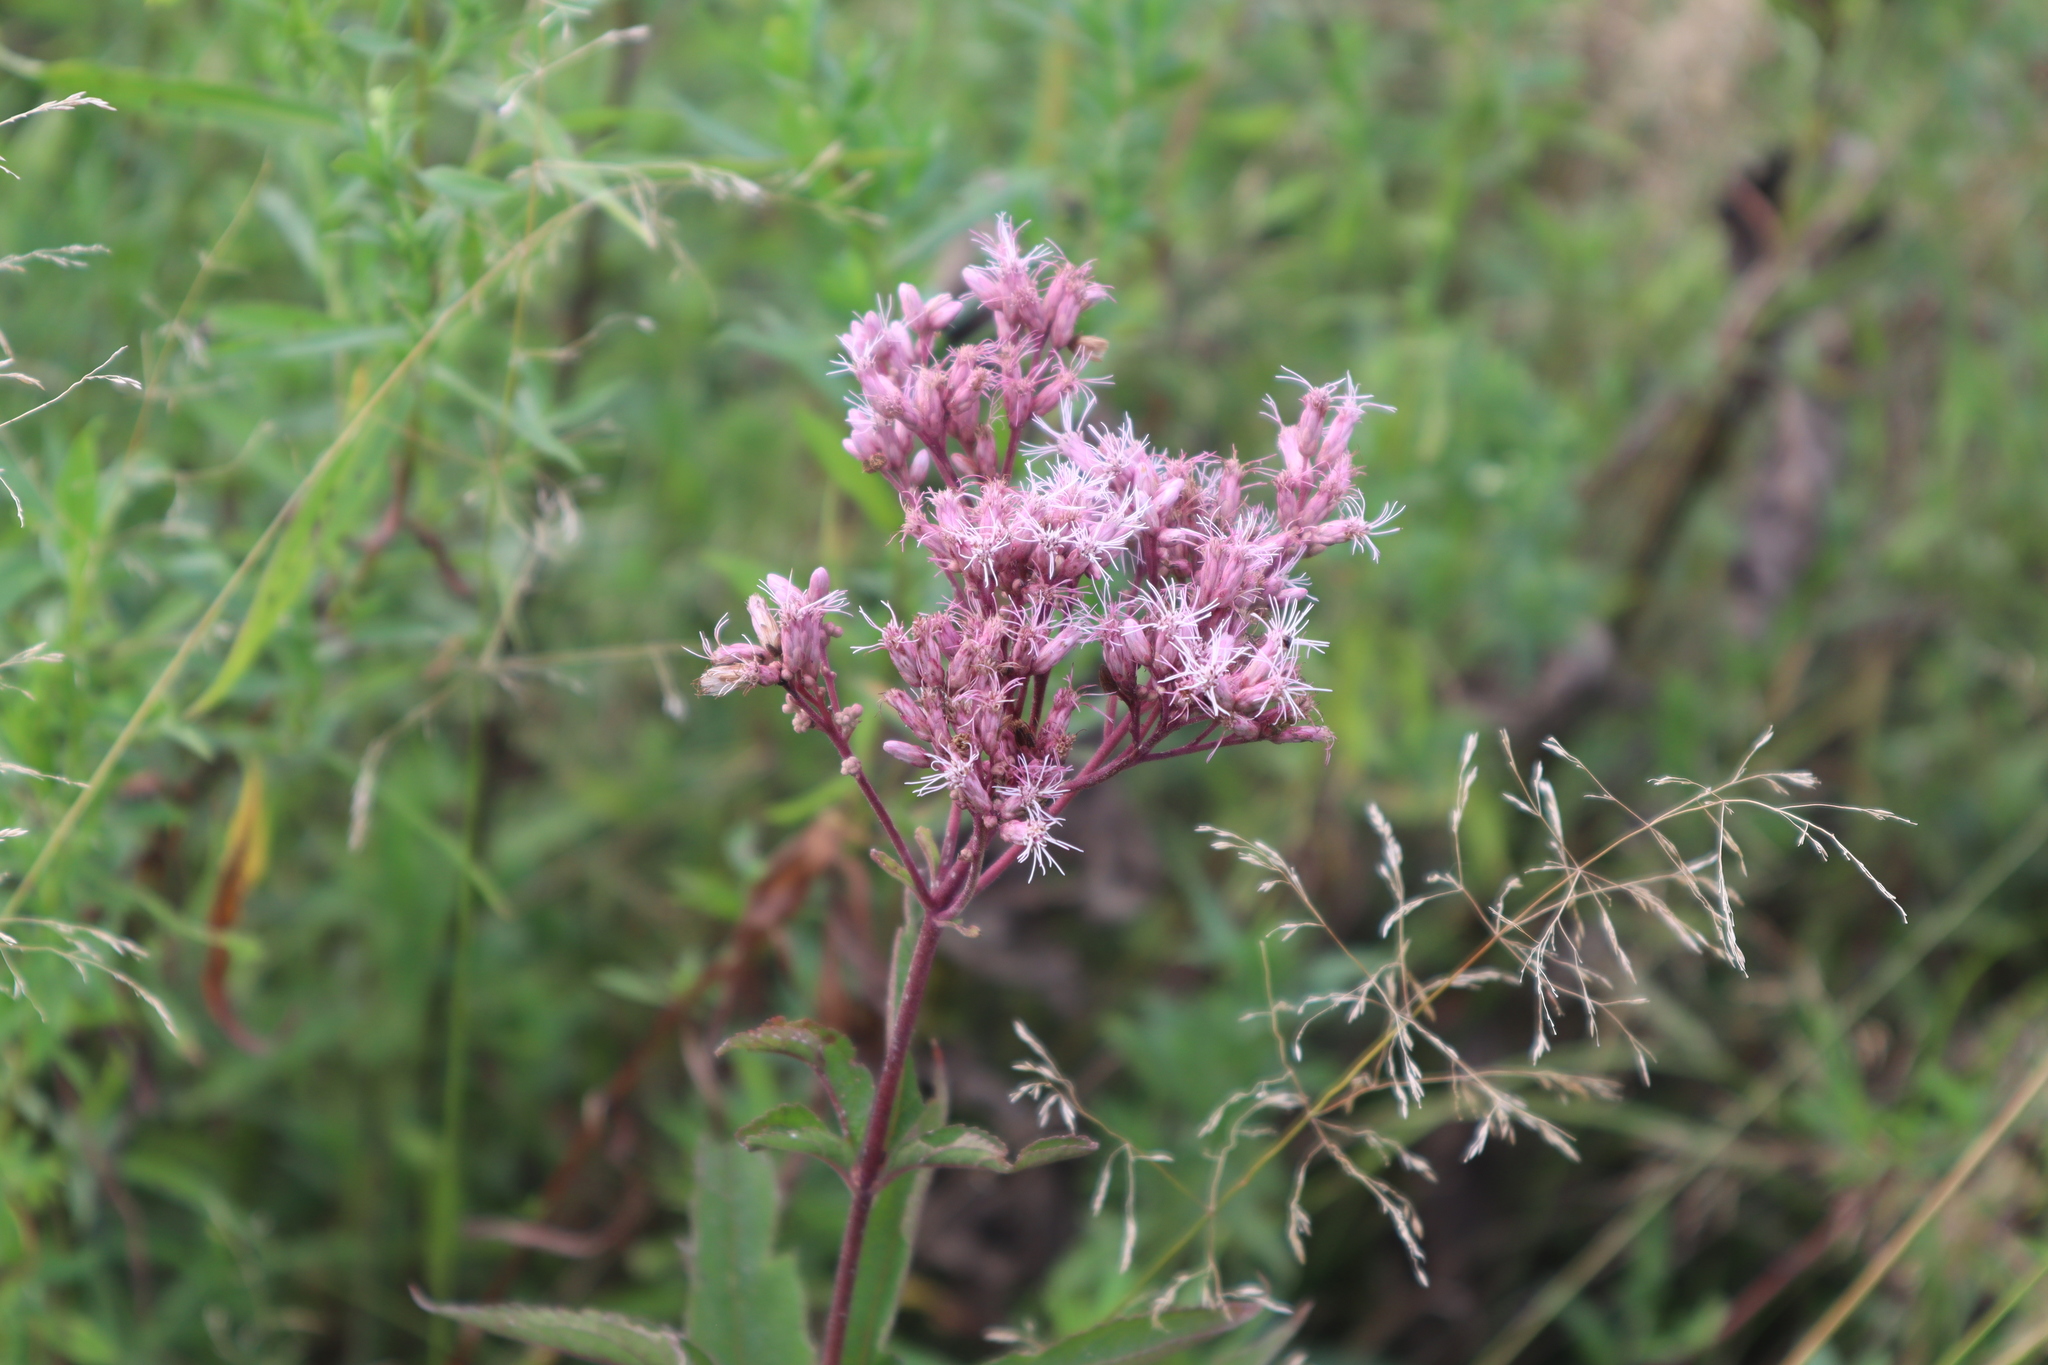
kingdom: Plantae
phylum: Tracheophyta
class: Magnoliopsida
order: Asterales
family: Asteraceae
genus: Eutrochium
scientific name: Eutrochium maculatum
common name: Spotted joe pye weed
